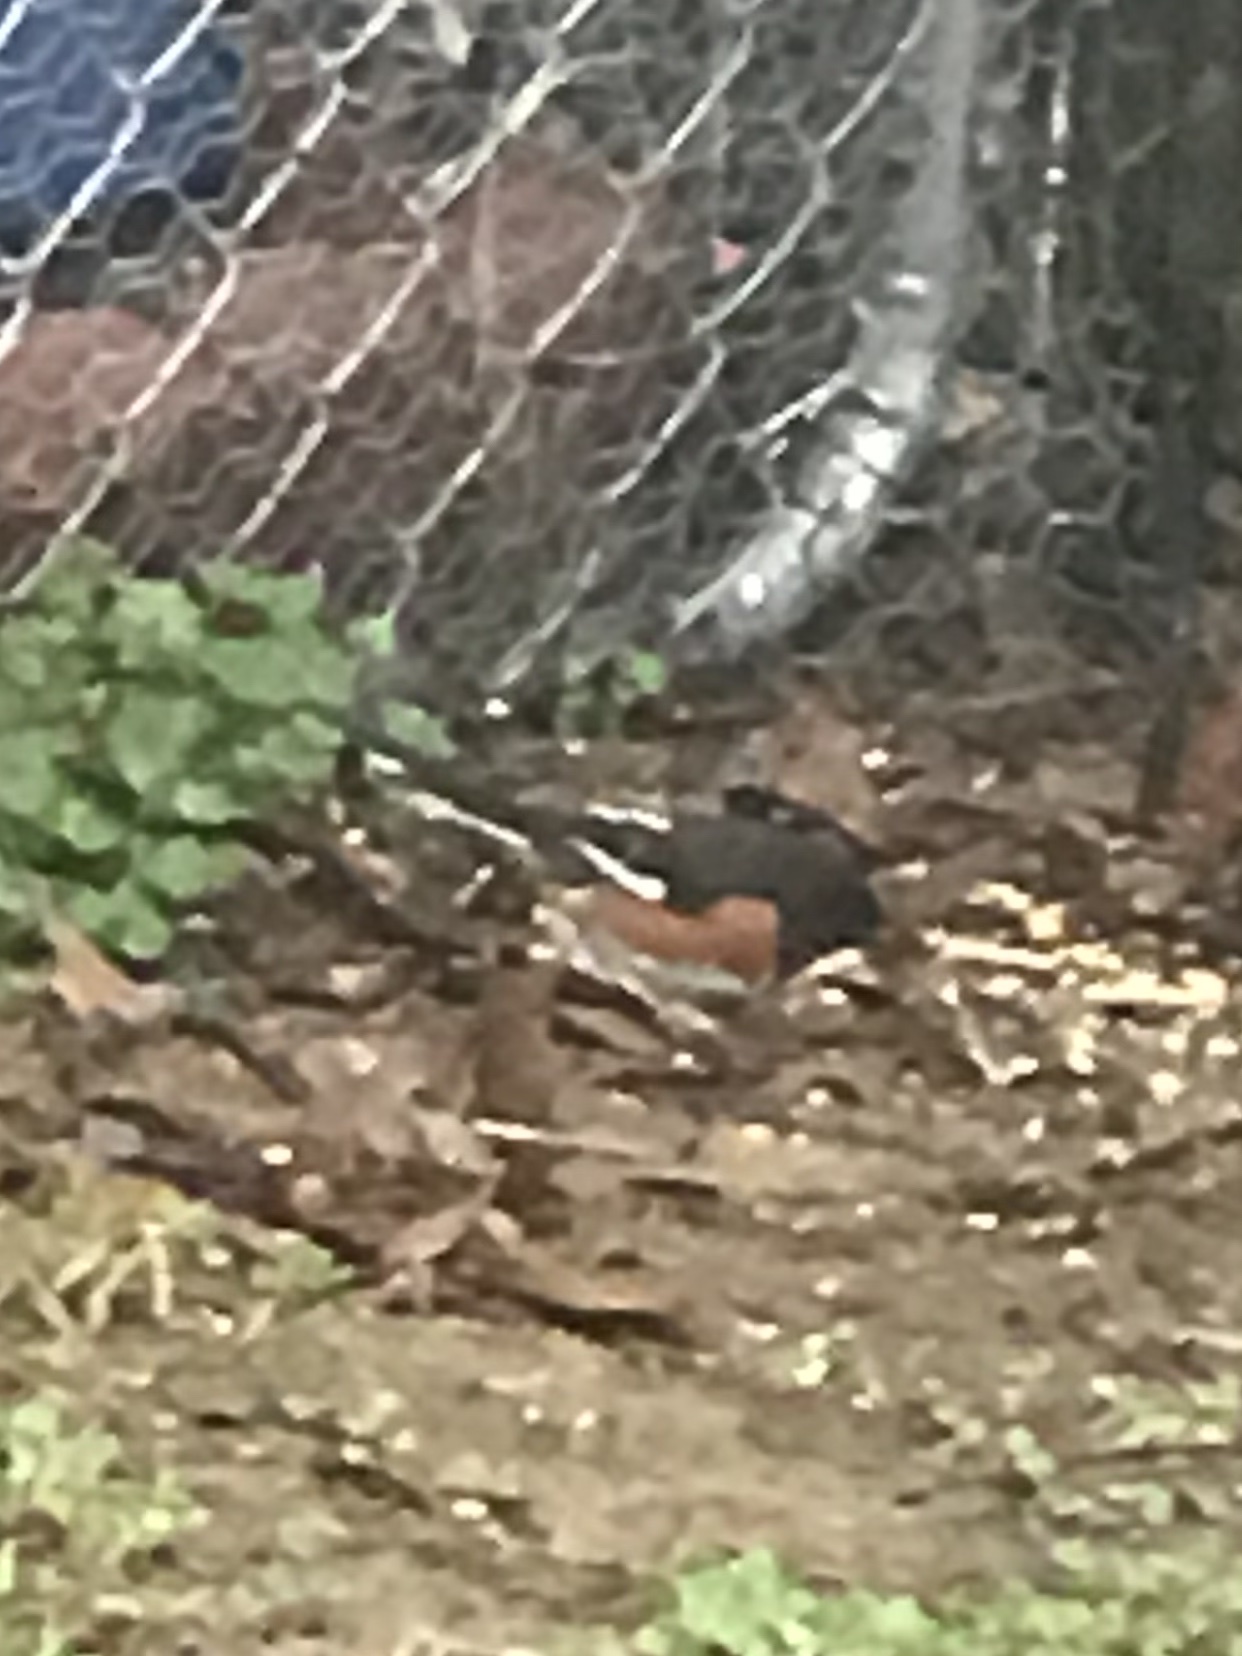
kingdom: Animalia
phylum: Chordata
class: Aves
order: Passeriformes
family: Passerellidae
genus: Pipilo
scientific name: Pipilo erythrophthalmus
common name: Eastern towhee
